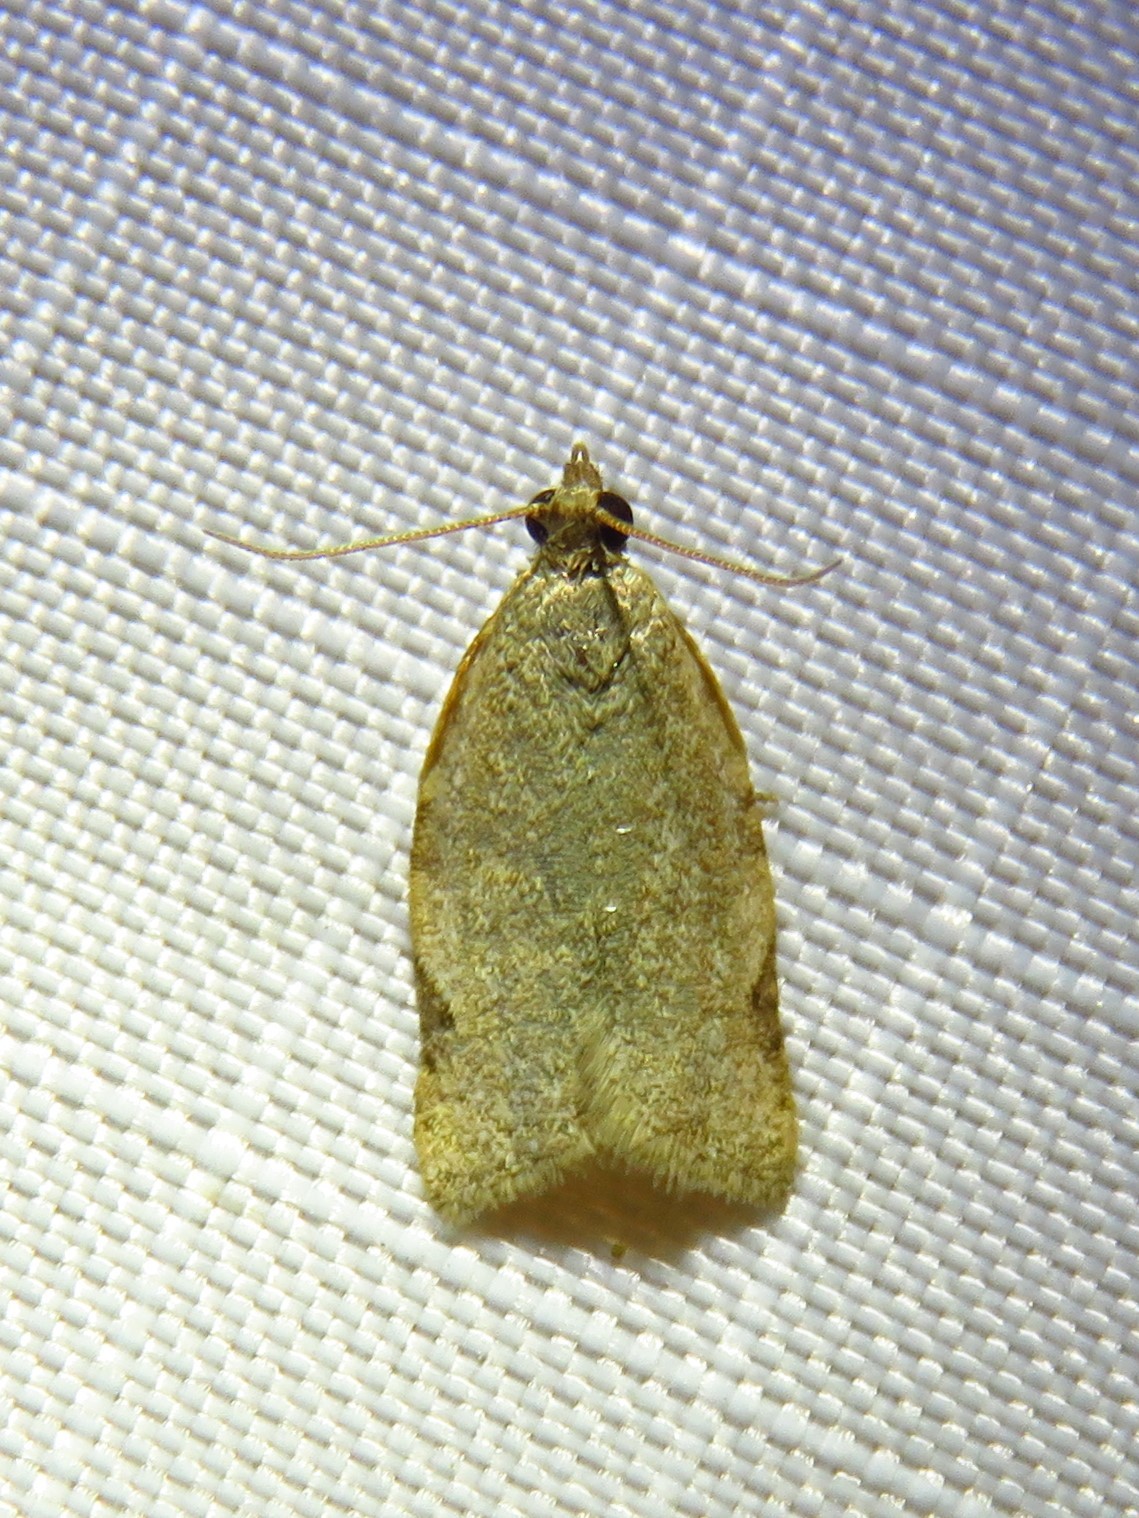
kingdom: Animalia
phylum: Arthropoda
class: Insecta
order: Lepidoptera
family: Tortricidae
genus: Clepsis
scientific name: Clepsis virescana
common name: Greenish apple moth
